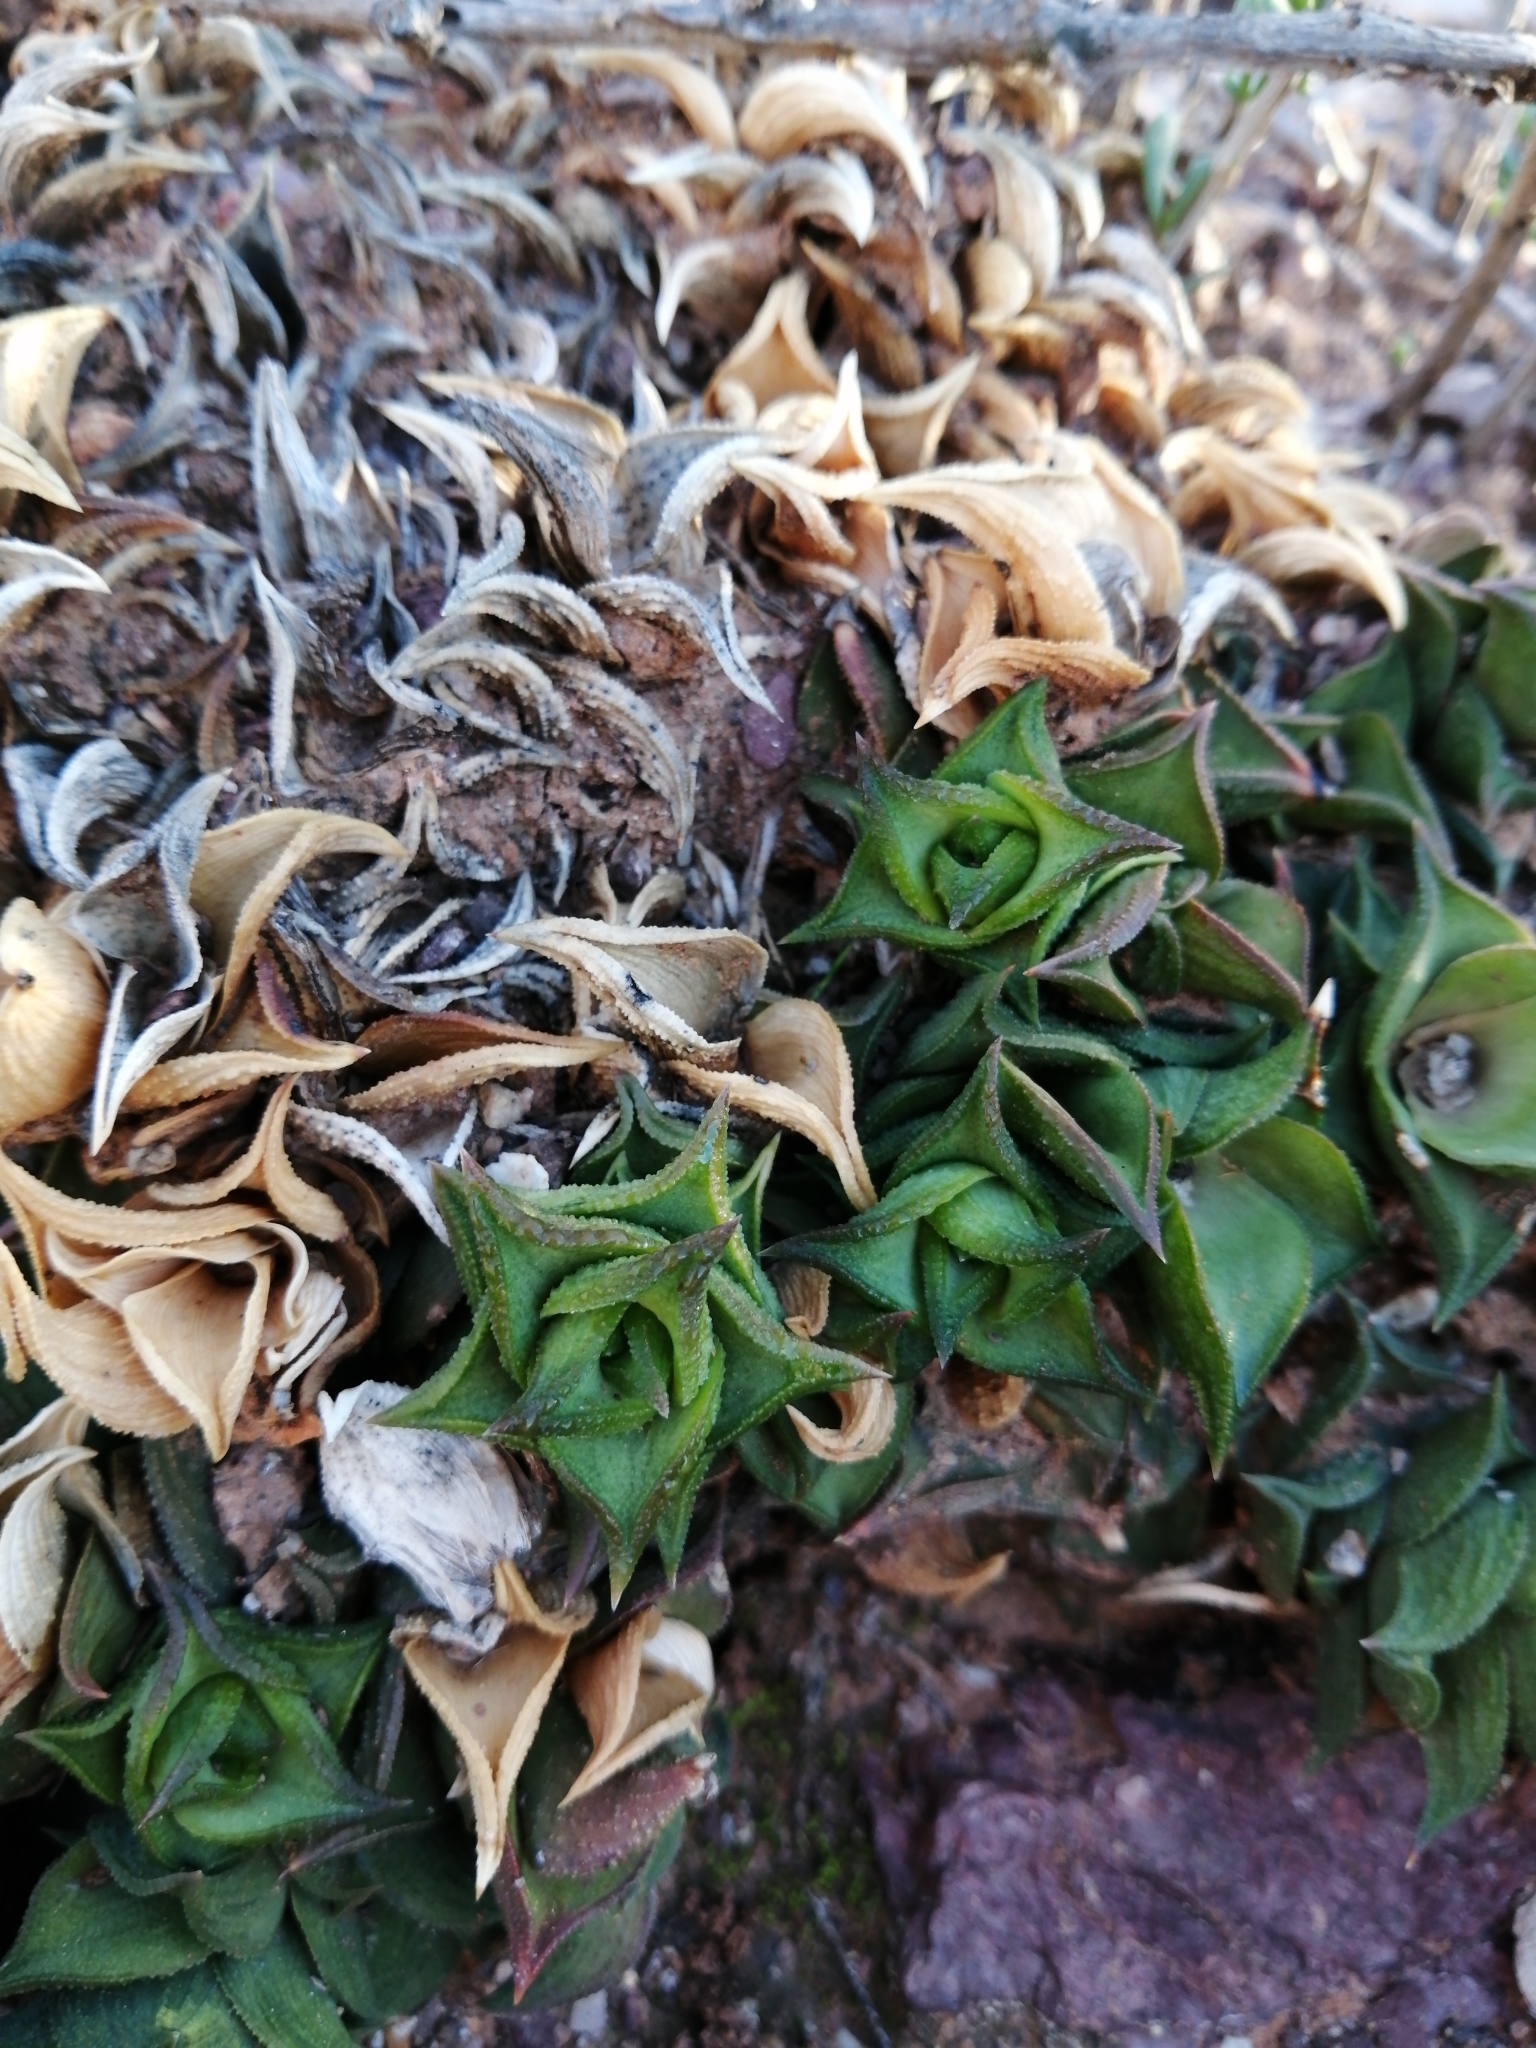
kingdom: Plantae
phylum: Tracheophyta
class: Liliopsida
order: Asparagales
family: Asphodelaceae
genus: Astroloba
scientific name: Astroloba corrugata
